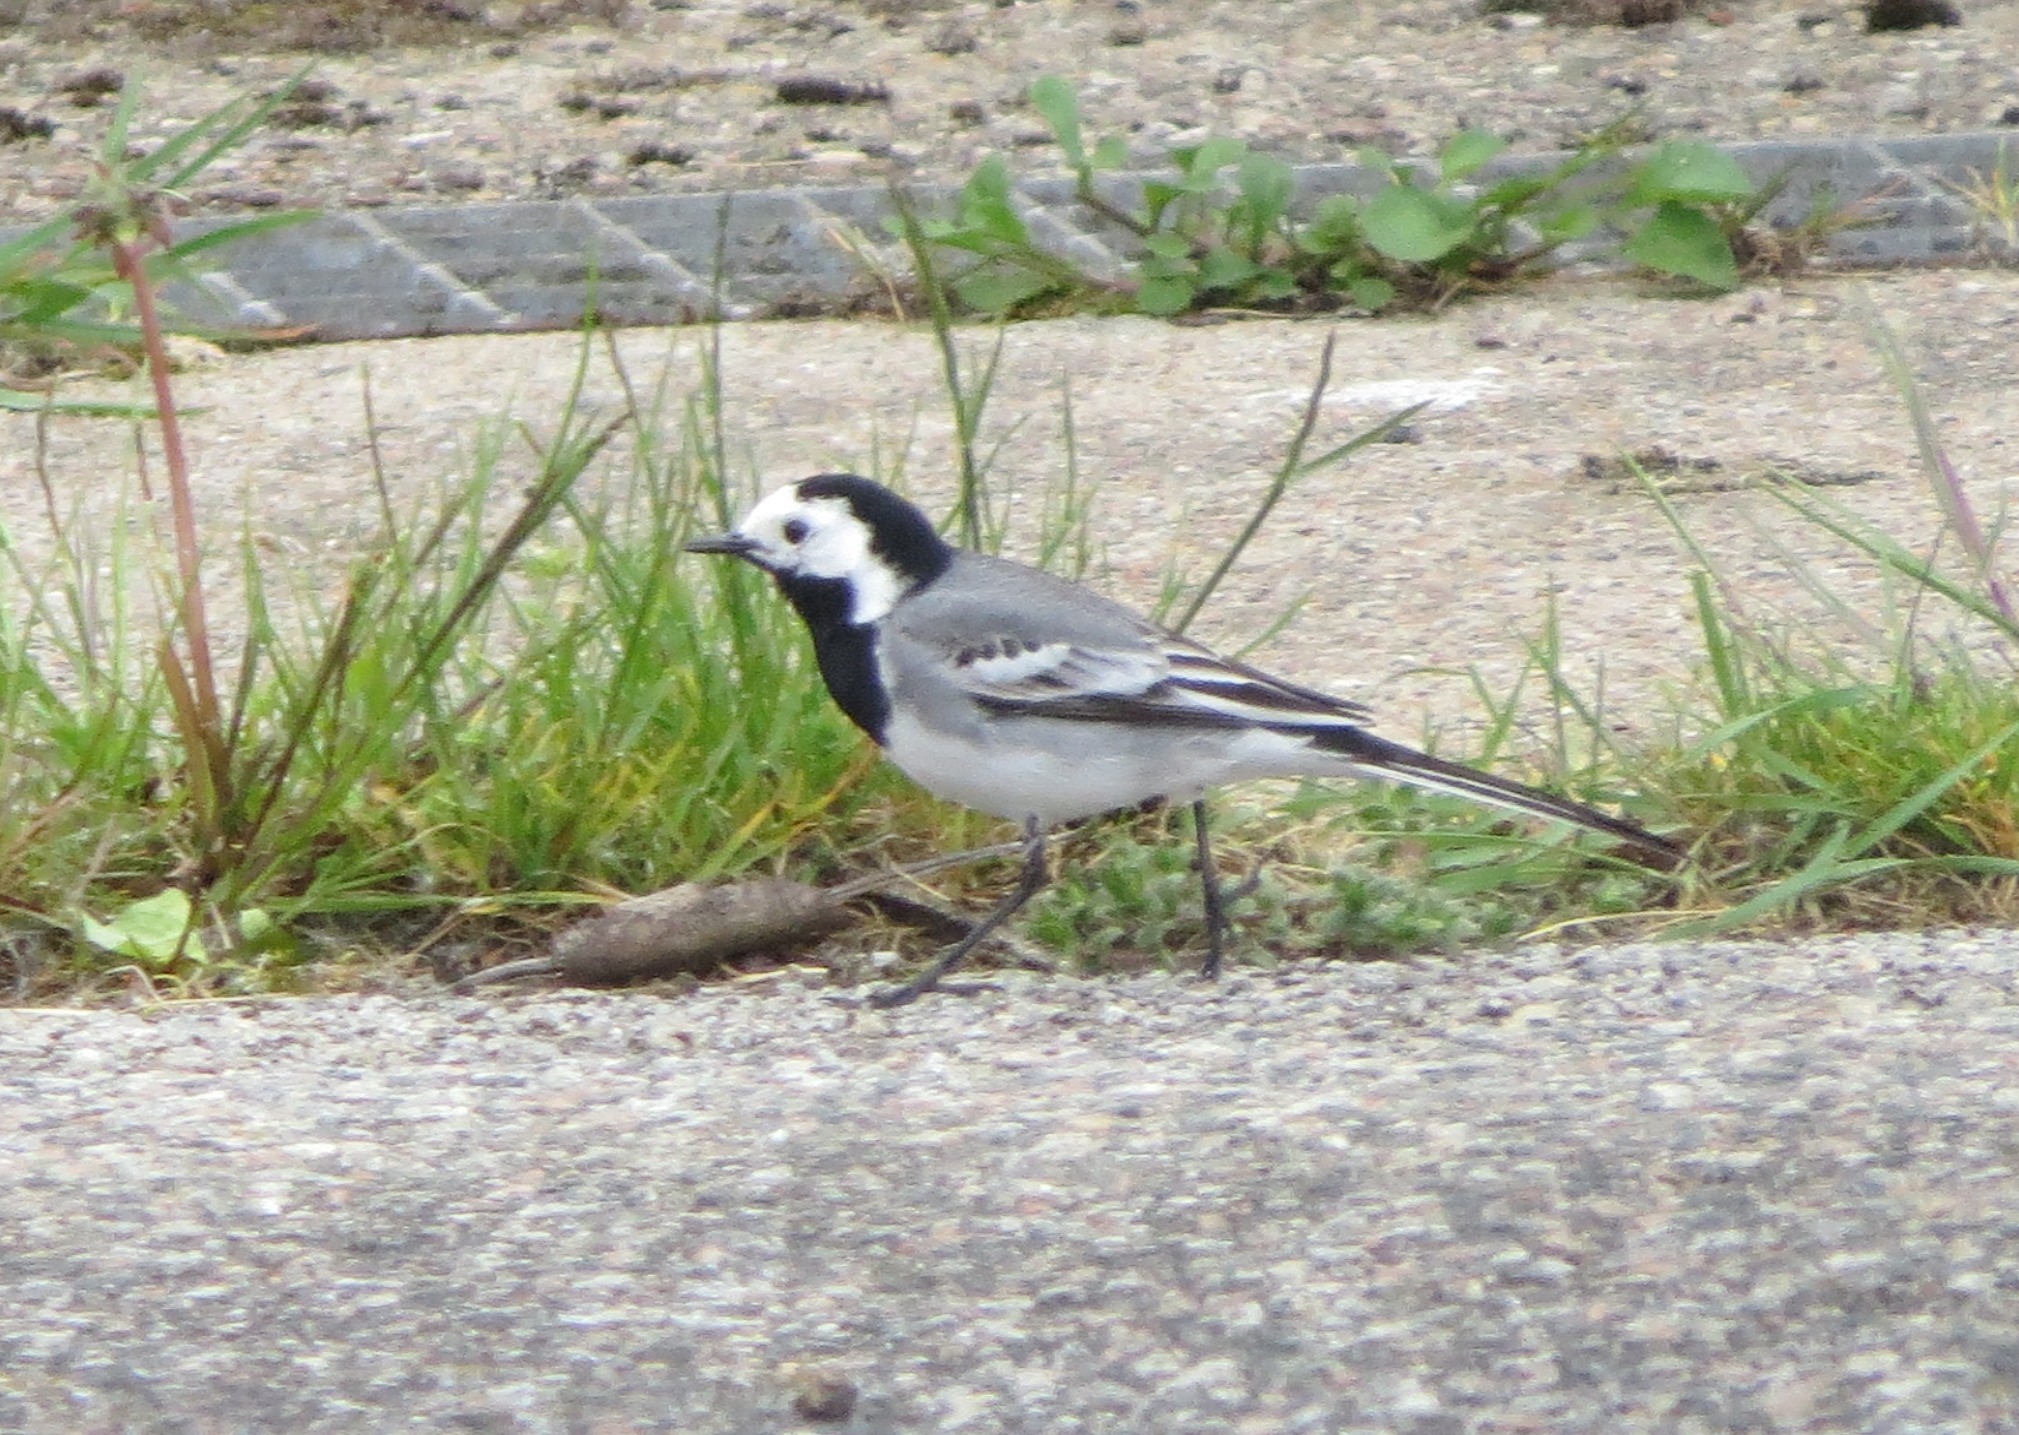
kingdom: Animalia
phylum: Chordata
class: Aves
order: Passeriformes
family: Motacillidae
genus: Motacilla
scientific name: Motacilla alba
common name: White wagtail
